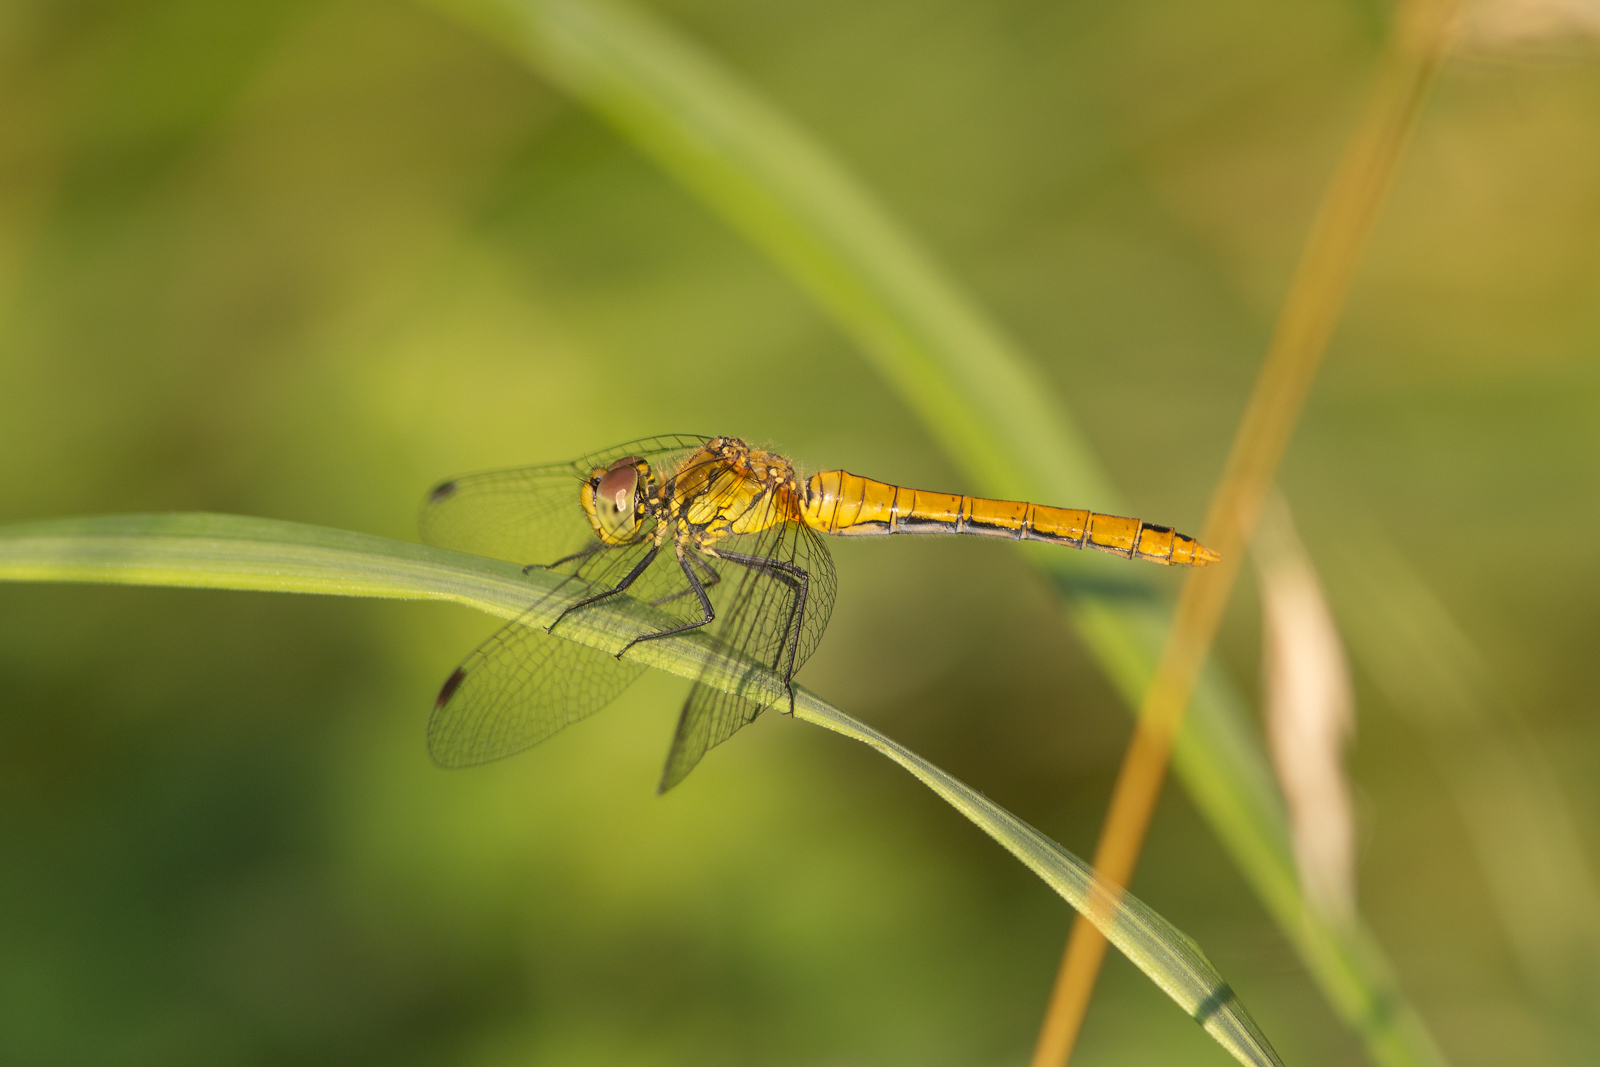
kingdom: Animalia
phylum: Arthropoda
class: Insecta
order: Odonata
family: Libellulidae
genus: Sympetrum
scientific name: Sympetrum sanguineum
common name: Ruddy darter
